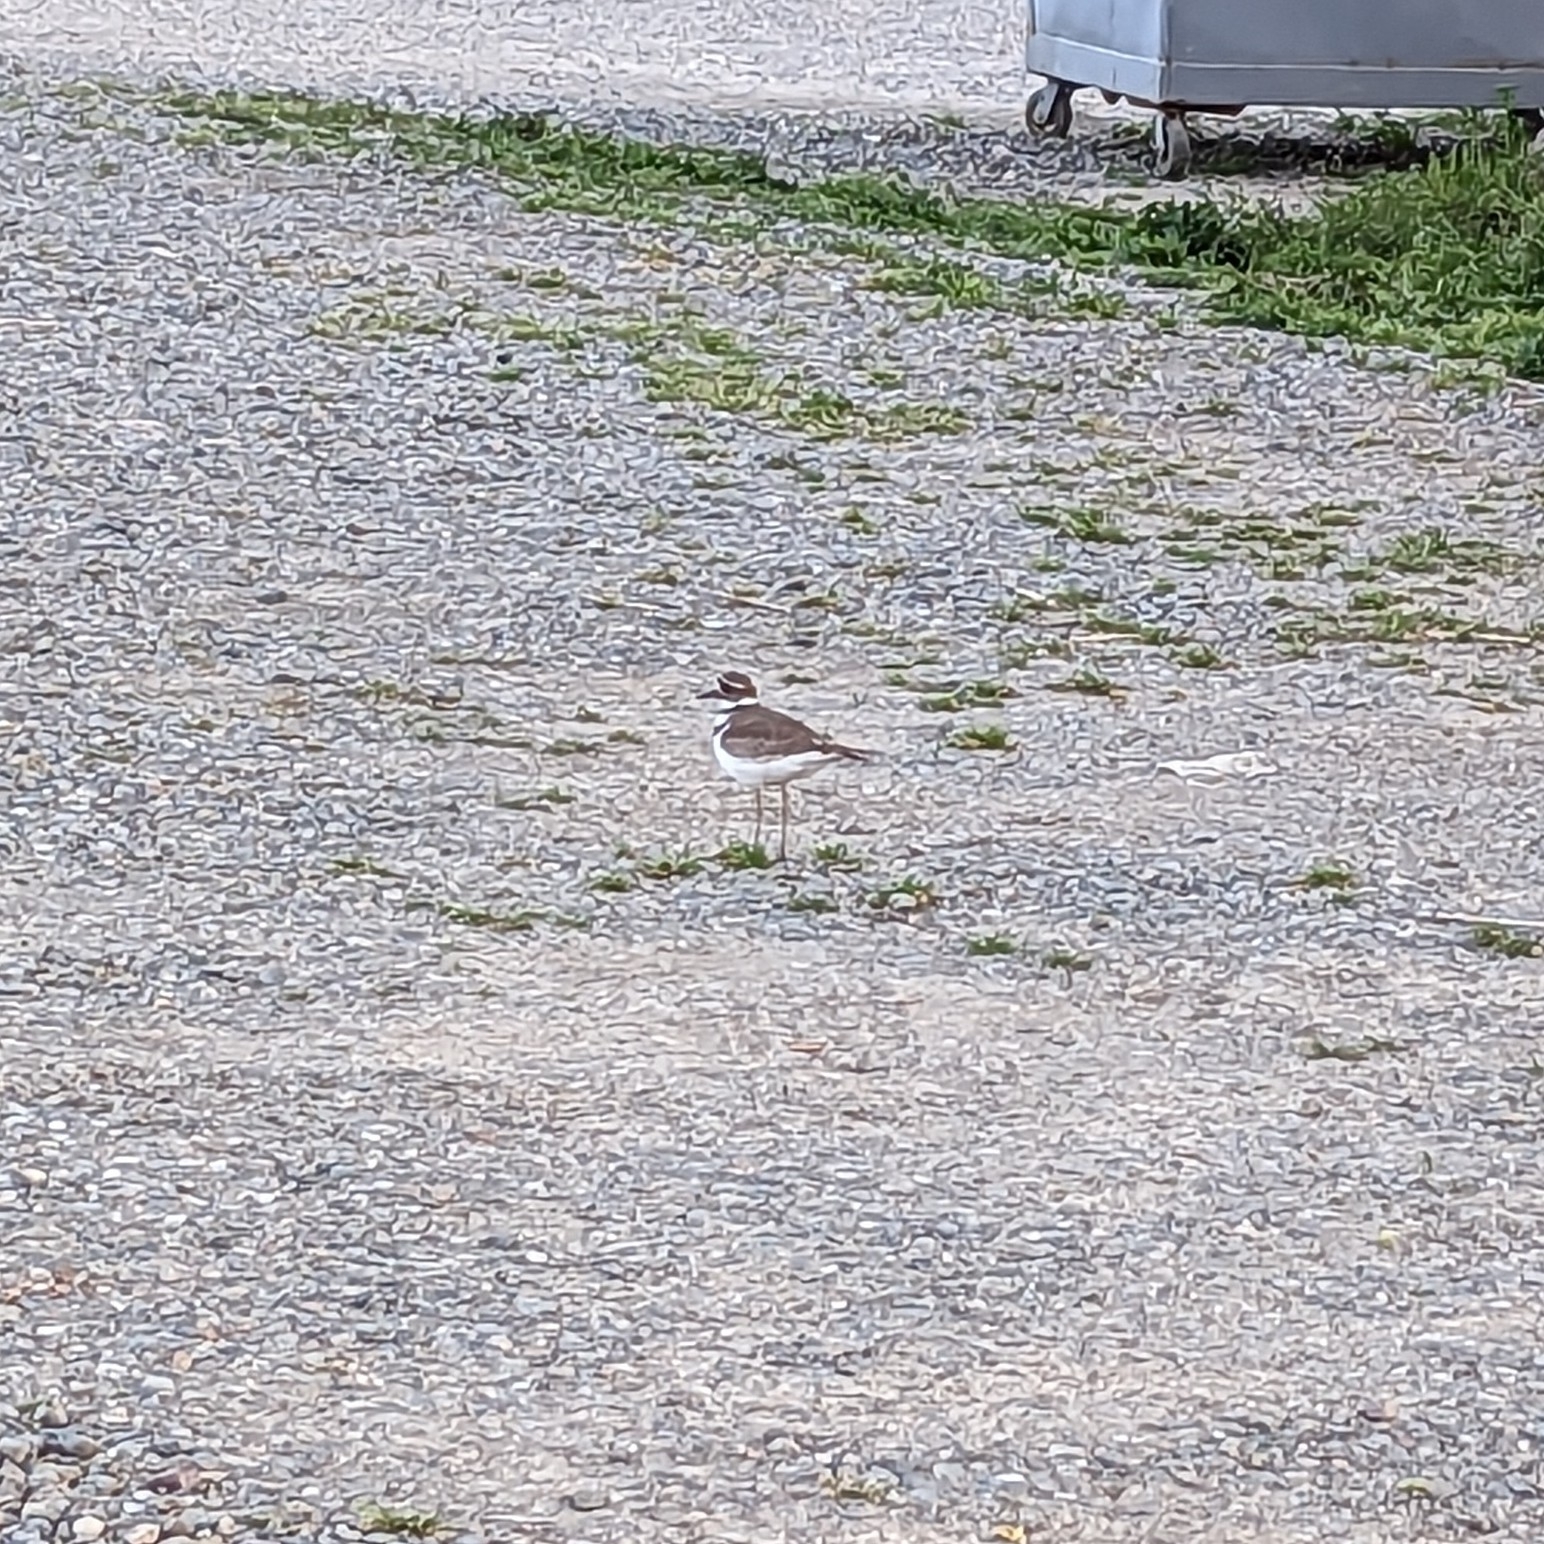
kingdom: Animalia
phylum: Chordata
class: Aves
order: Charadriiformes
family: Charadriidae
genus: Charadrius
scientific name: Charadrius vociferus
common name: Killdeer
